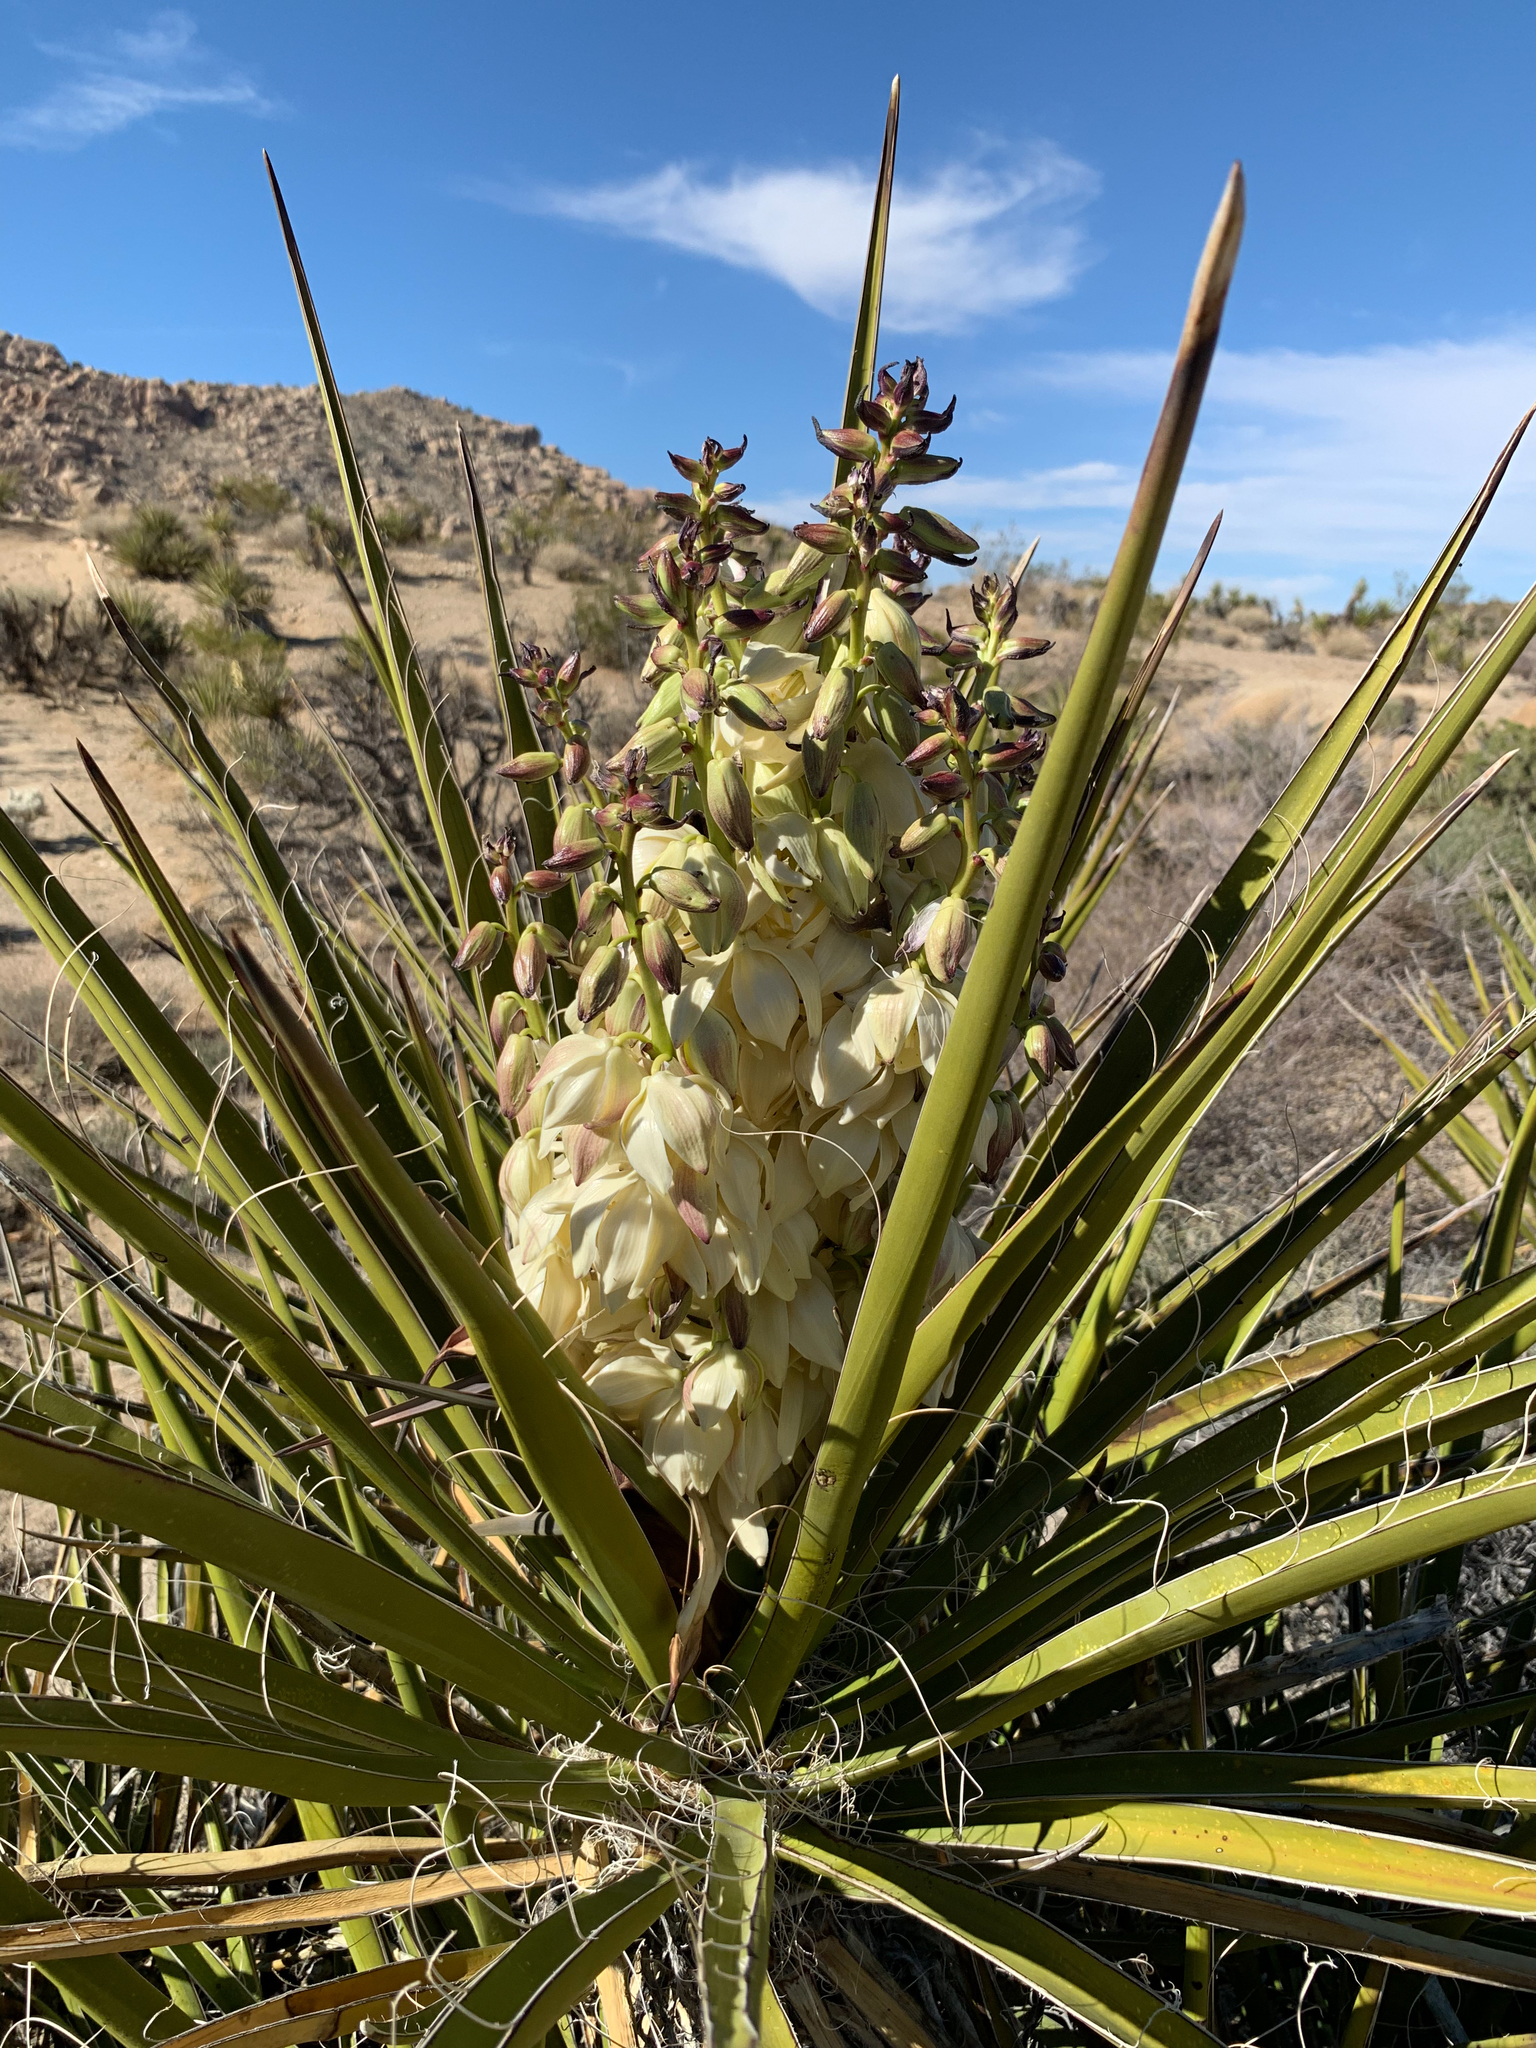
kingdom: Plantae
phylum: Tracheophyta
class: Liliopsida
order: Asparagales
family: Asparagaceae
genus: Yucca
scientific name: Yucca schidigera
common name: Mojave yucca
